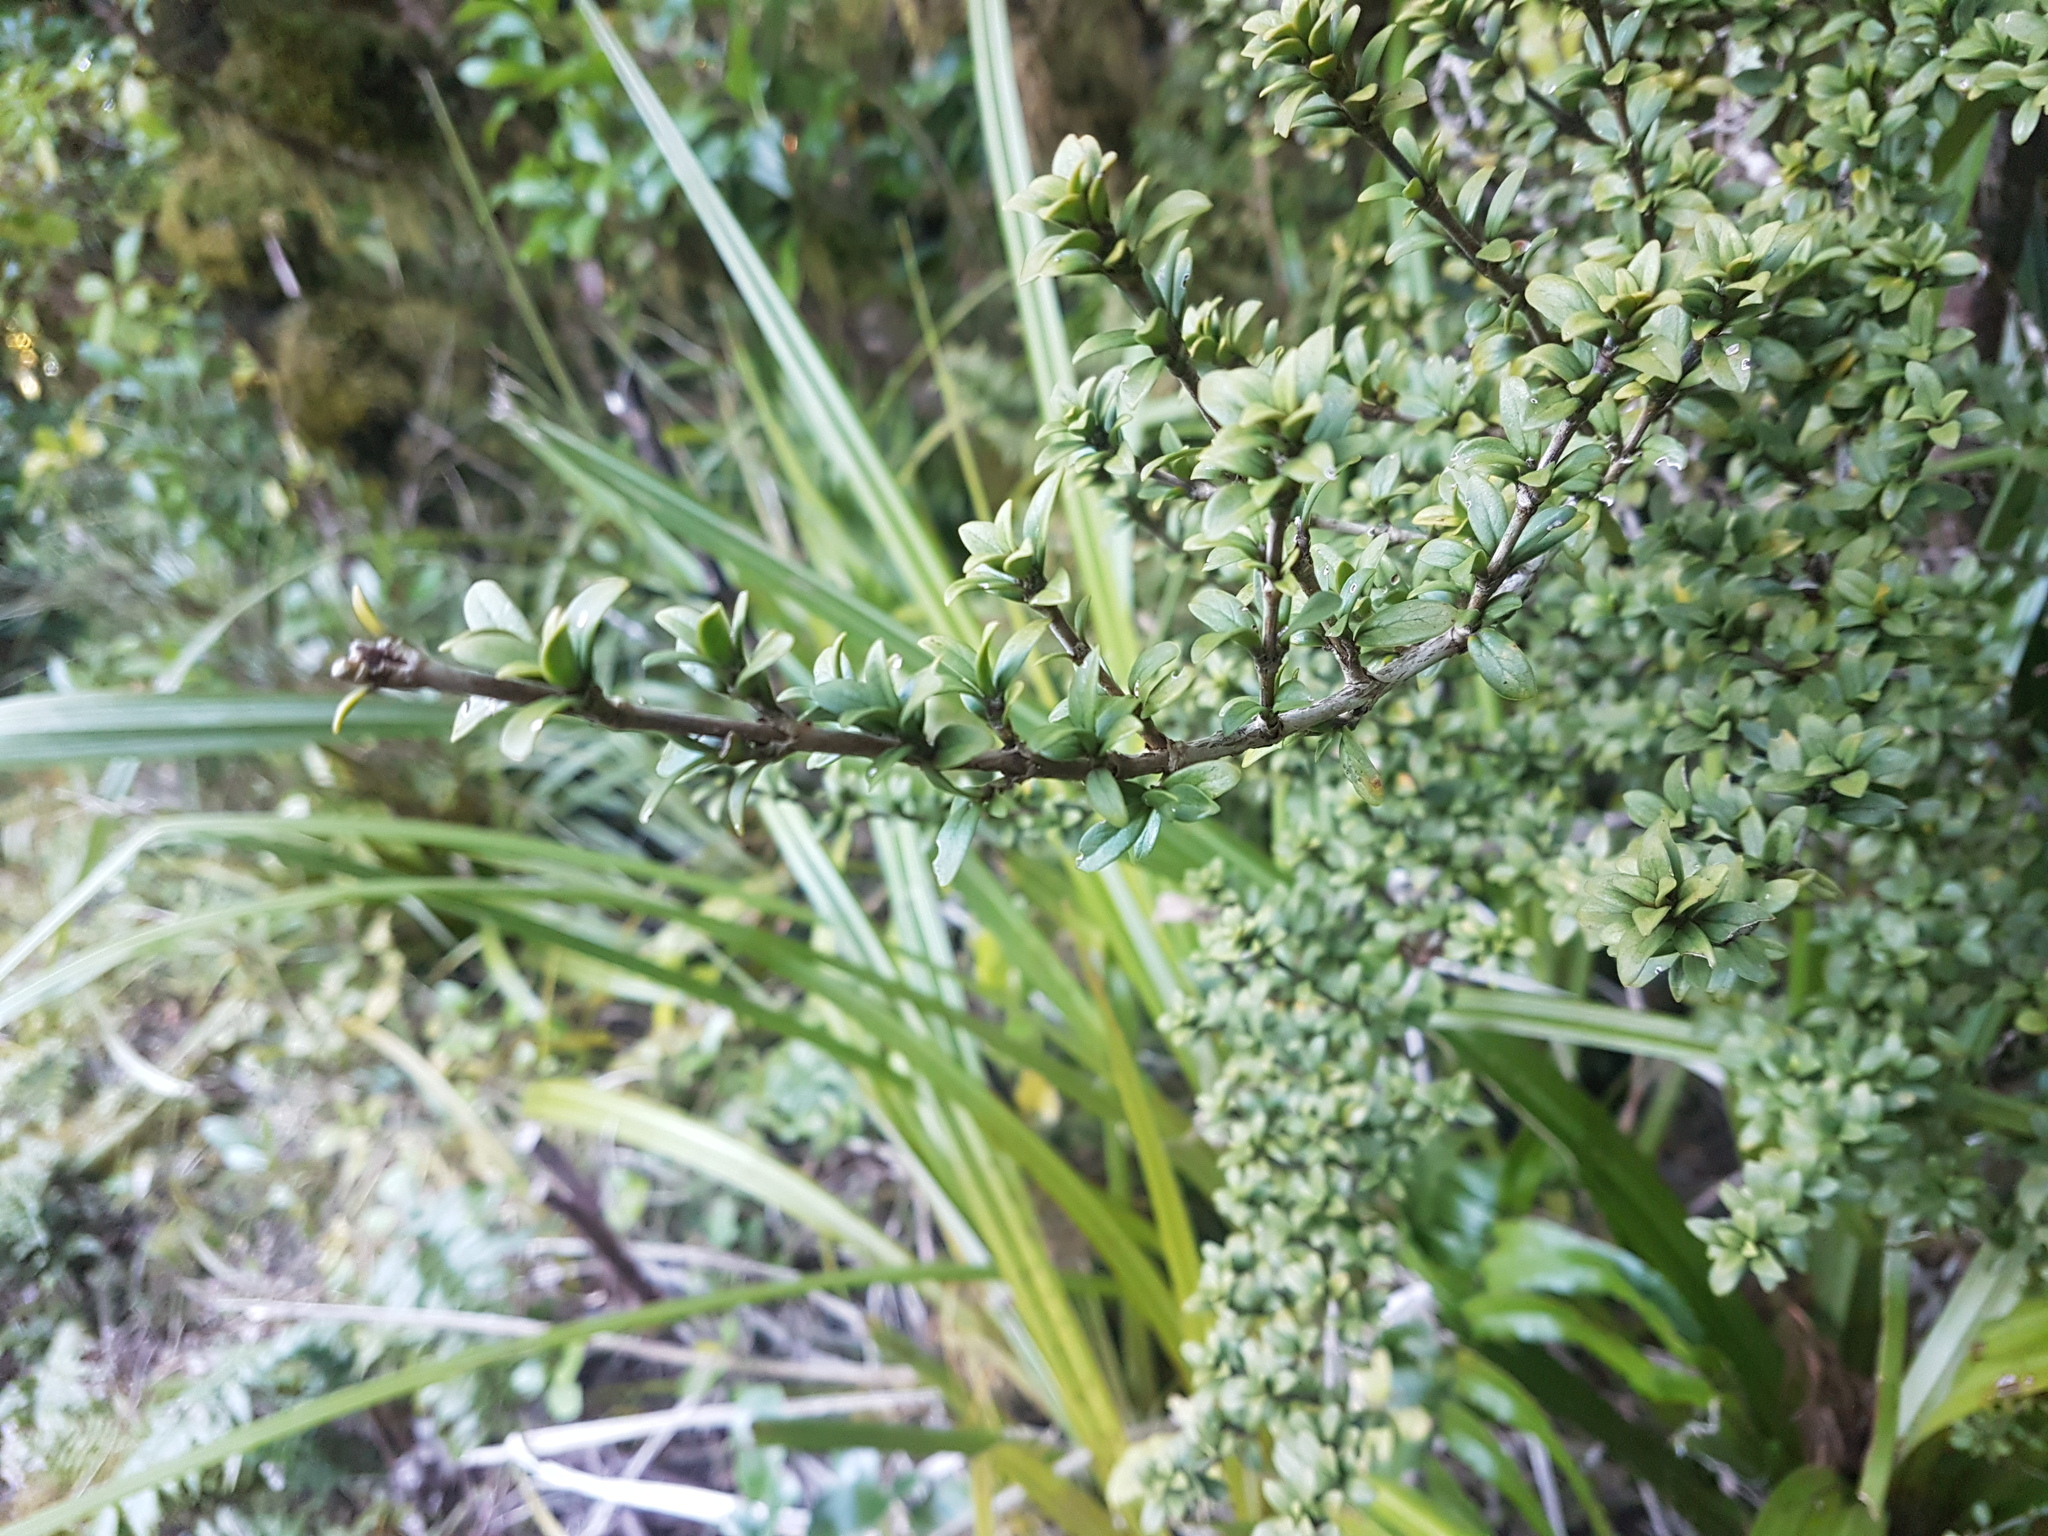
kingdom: Plantae
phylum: Tracheophyta
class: Magnoliopsida
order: Gentianales
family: Rubiaceae
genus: Coprosma
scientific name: Coprosma pseudocuneata
